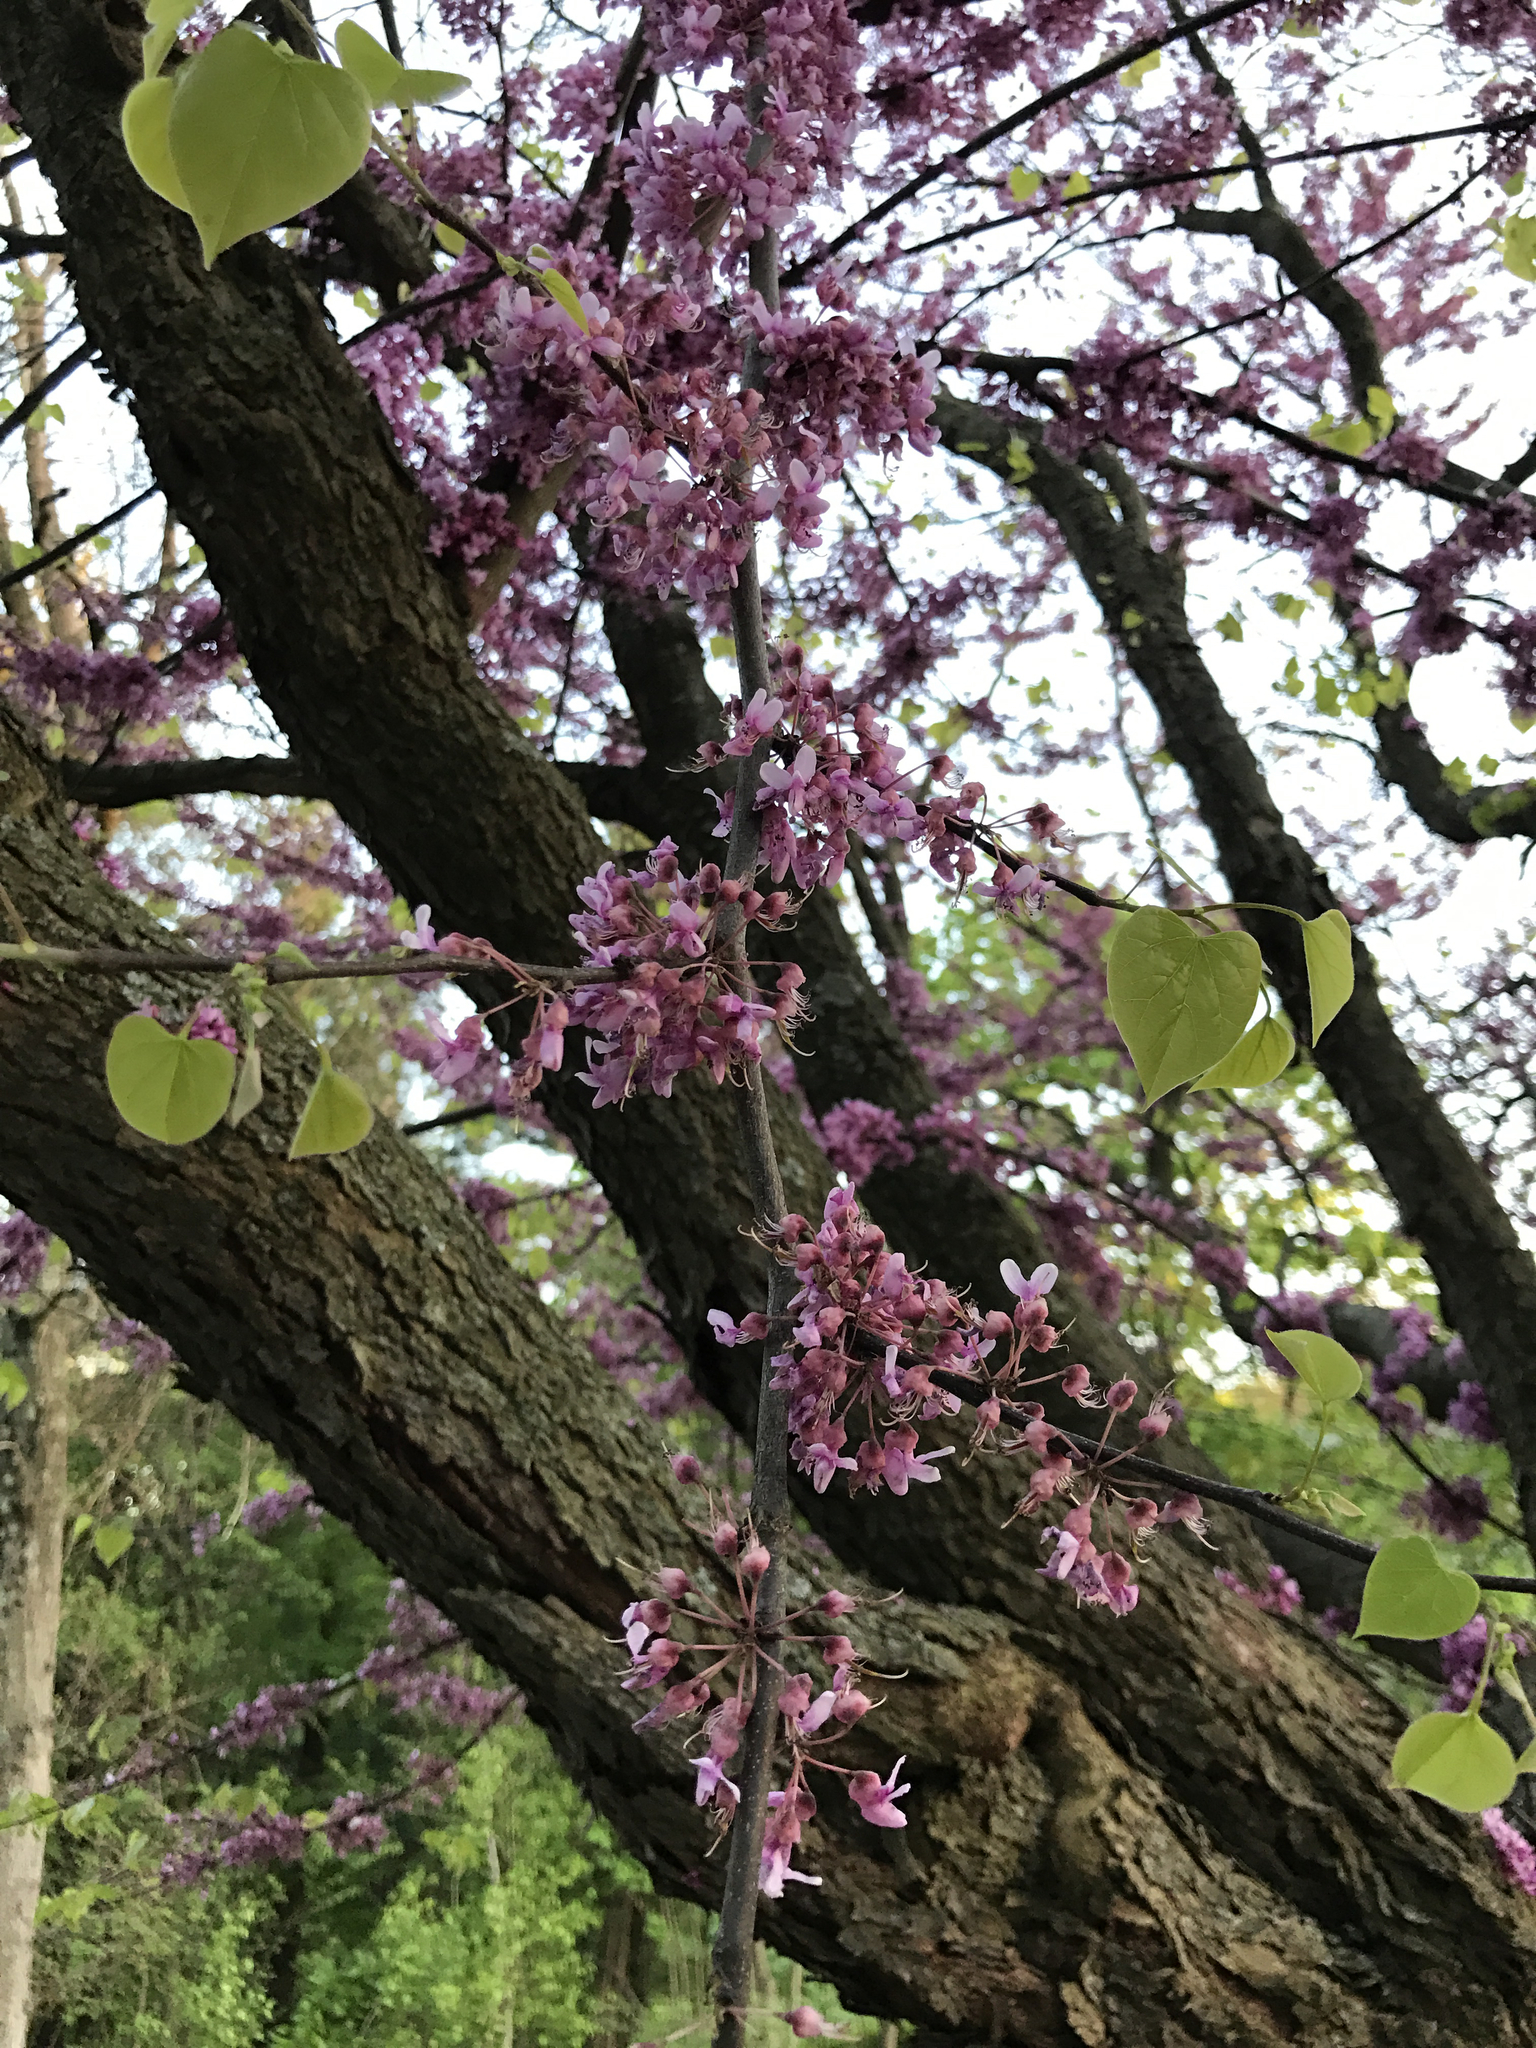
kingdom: Plantae
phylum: Tracheophyta
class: Magnoliopsida
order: Fabales
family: Fabaceae
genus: Cercis
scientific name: Cercis canadensis
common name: Eastern redbud
